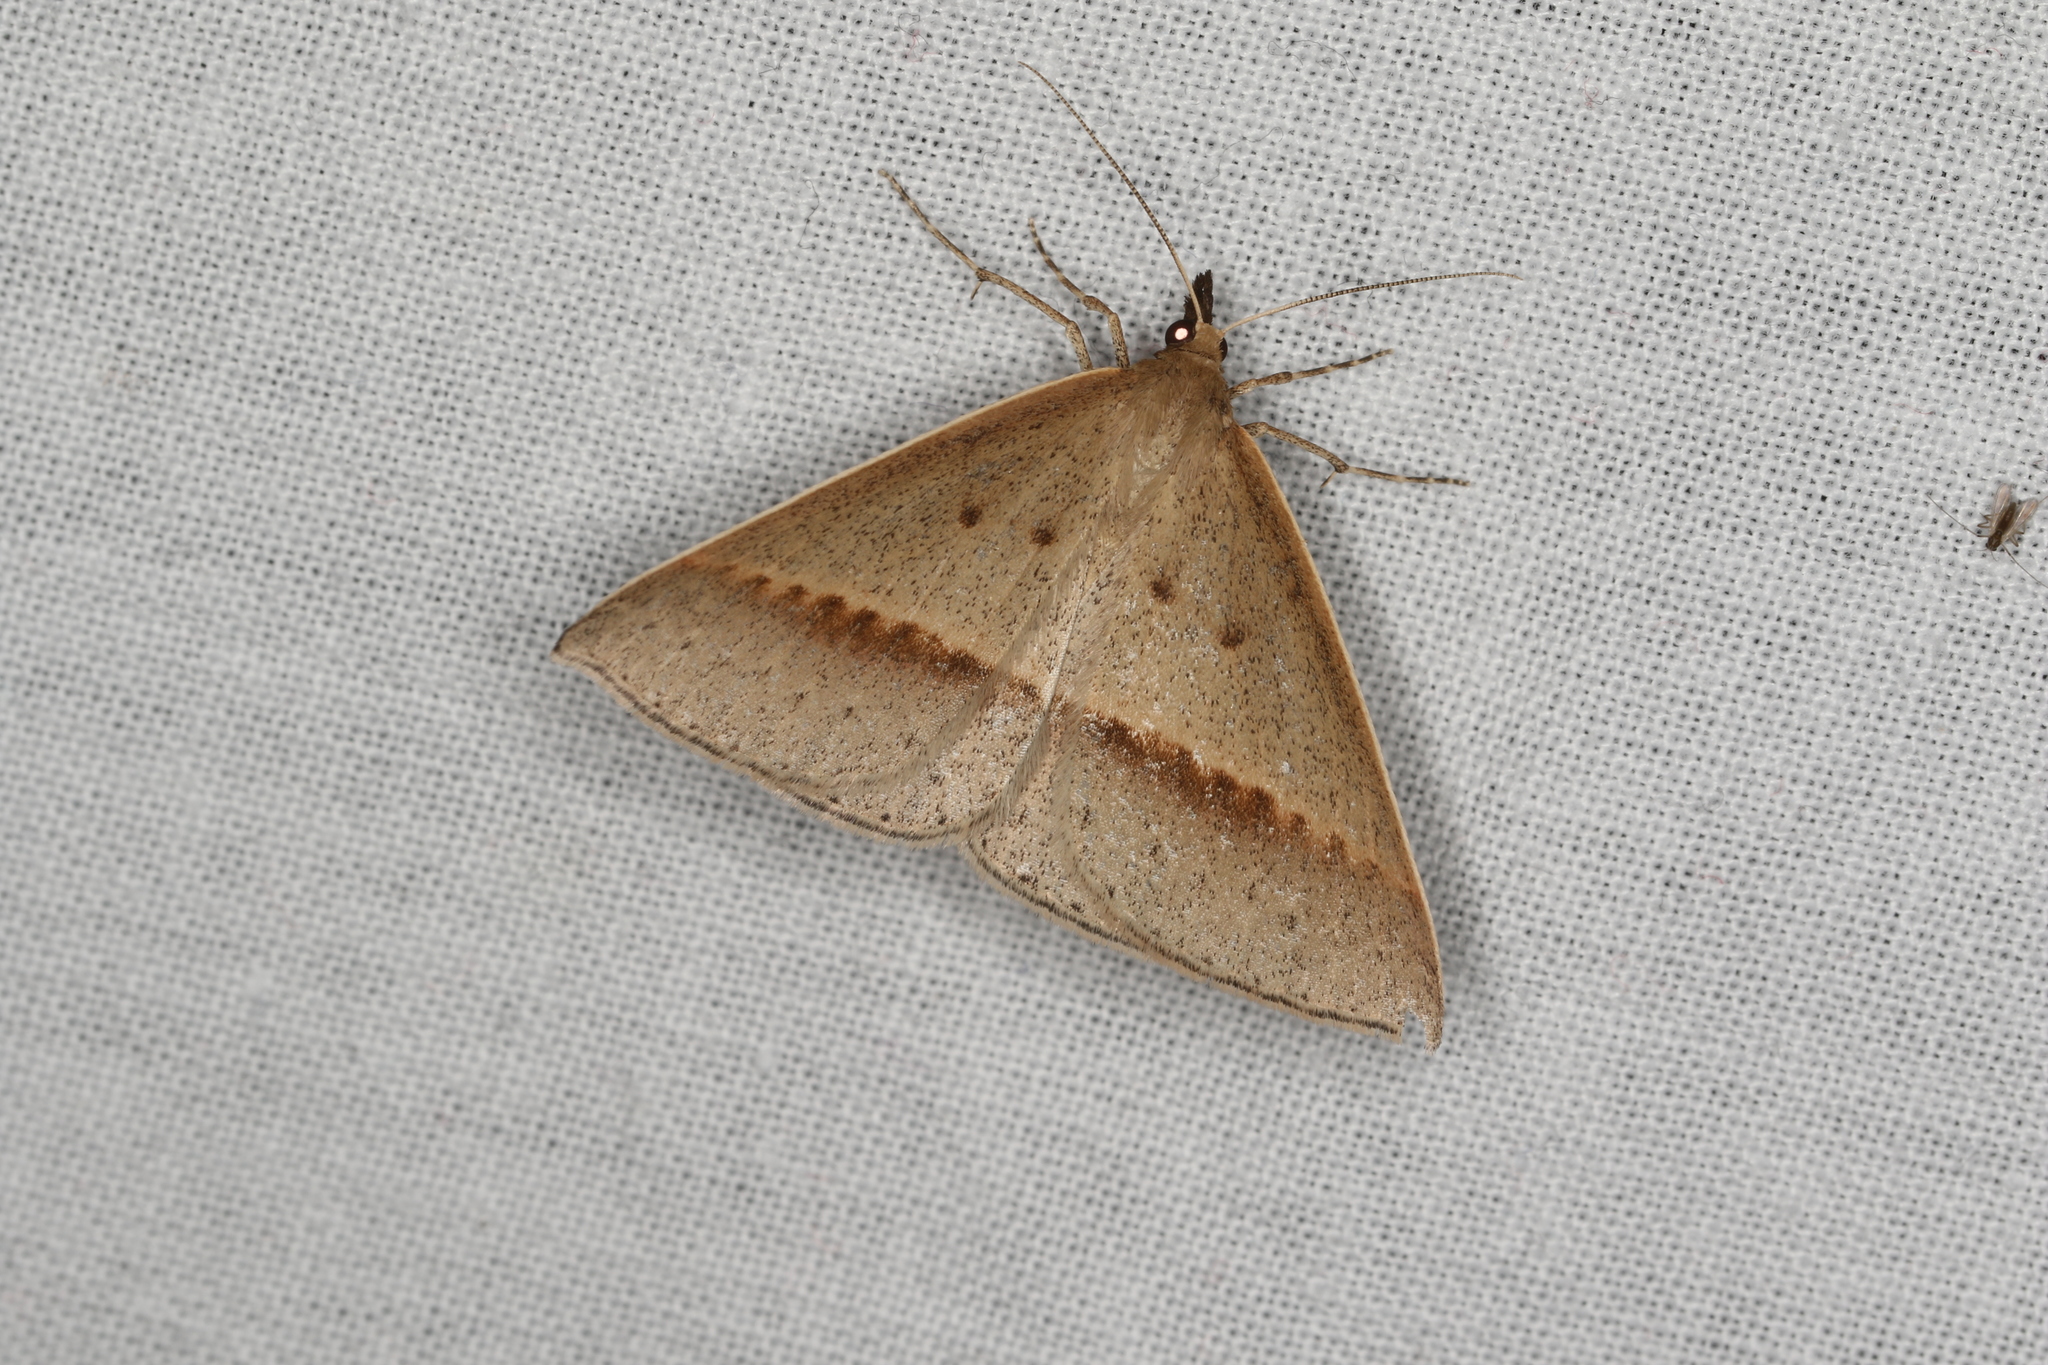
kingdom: Animalia
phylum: Arthropoda
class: Insecta
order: Lepidoptera
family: Geometridae
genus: Epidesmia
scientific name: Epidesmia tryxaria
